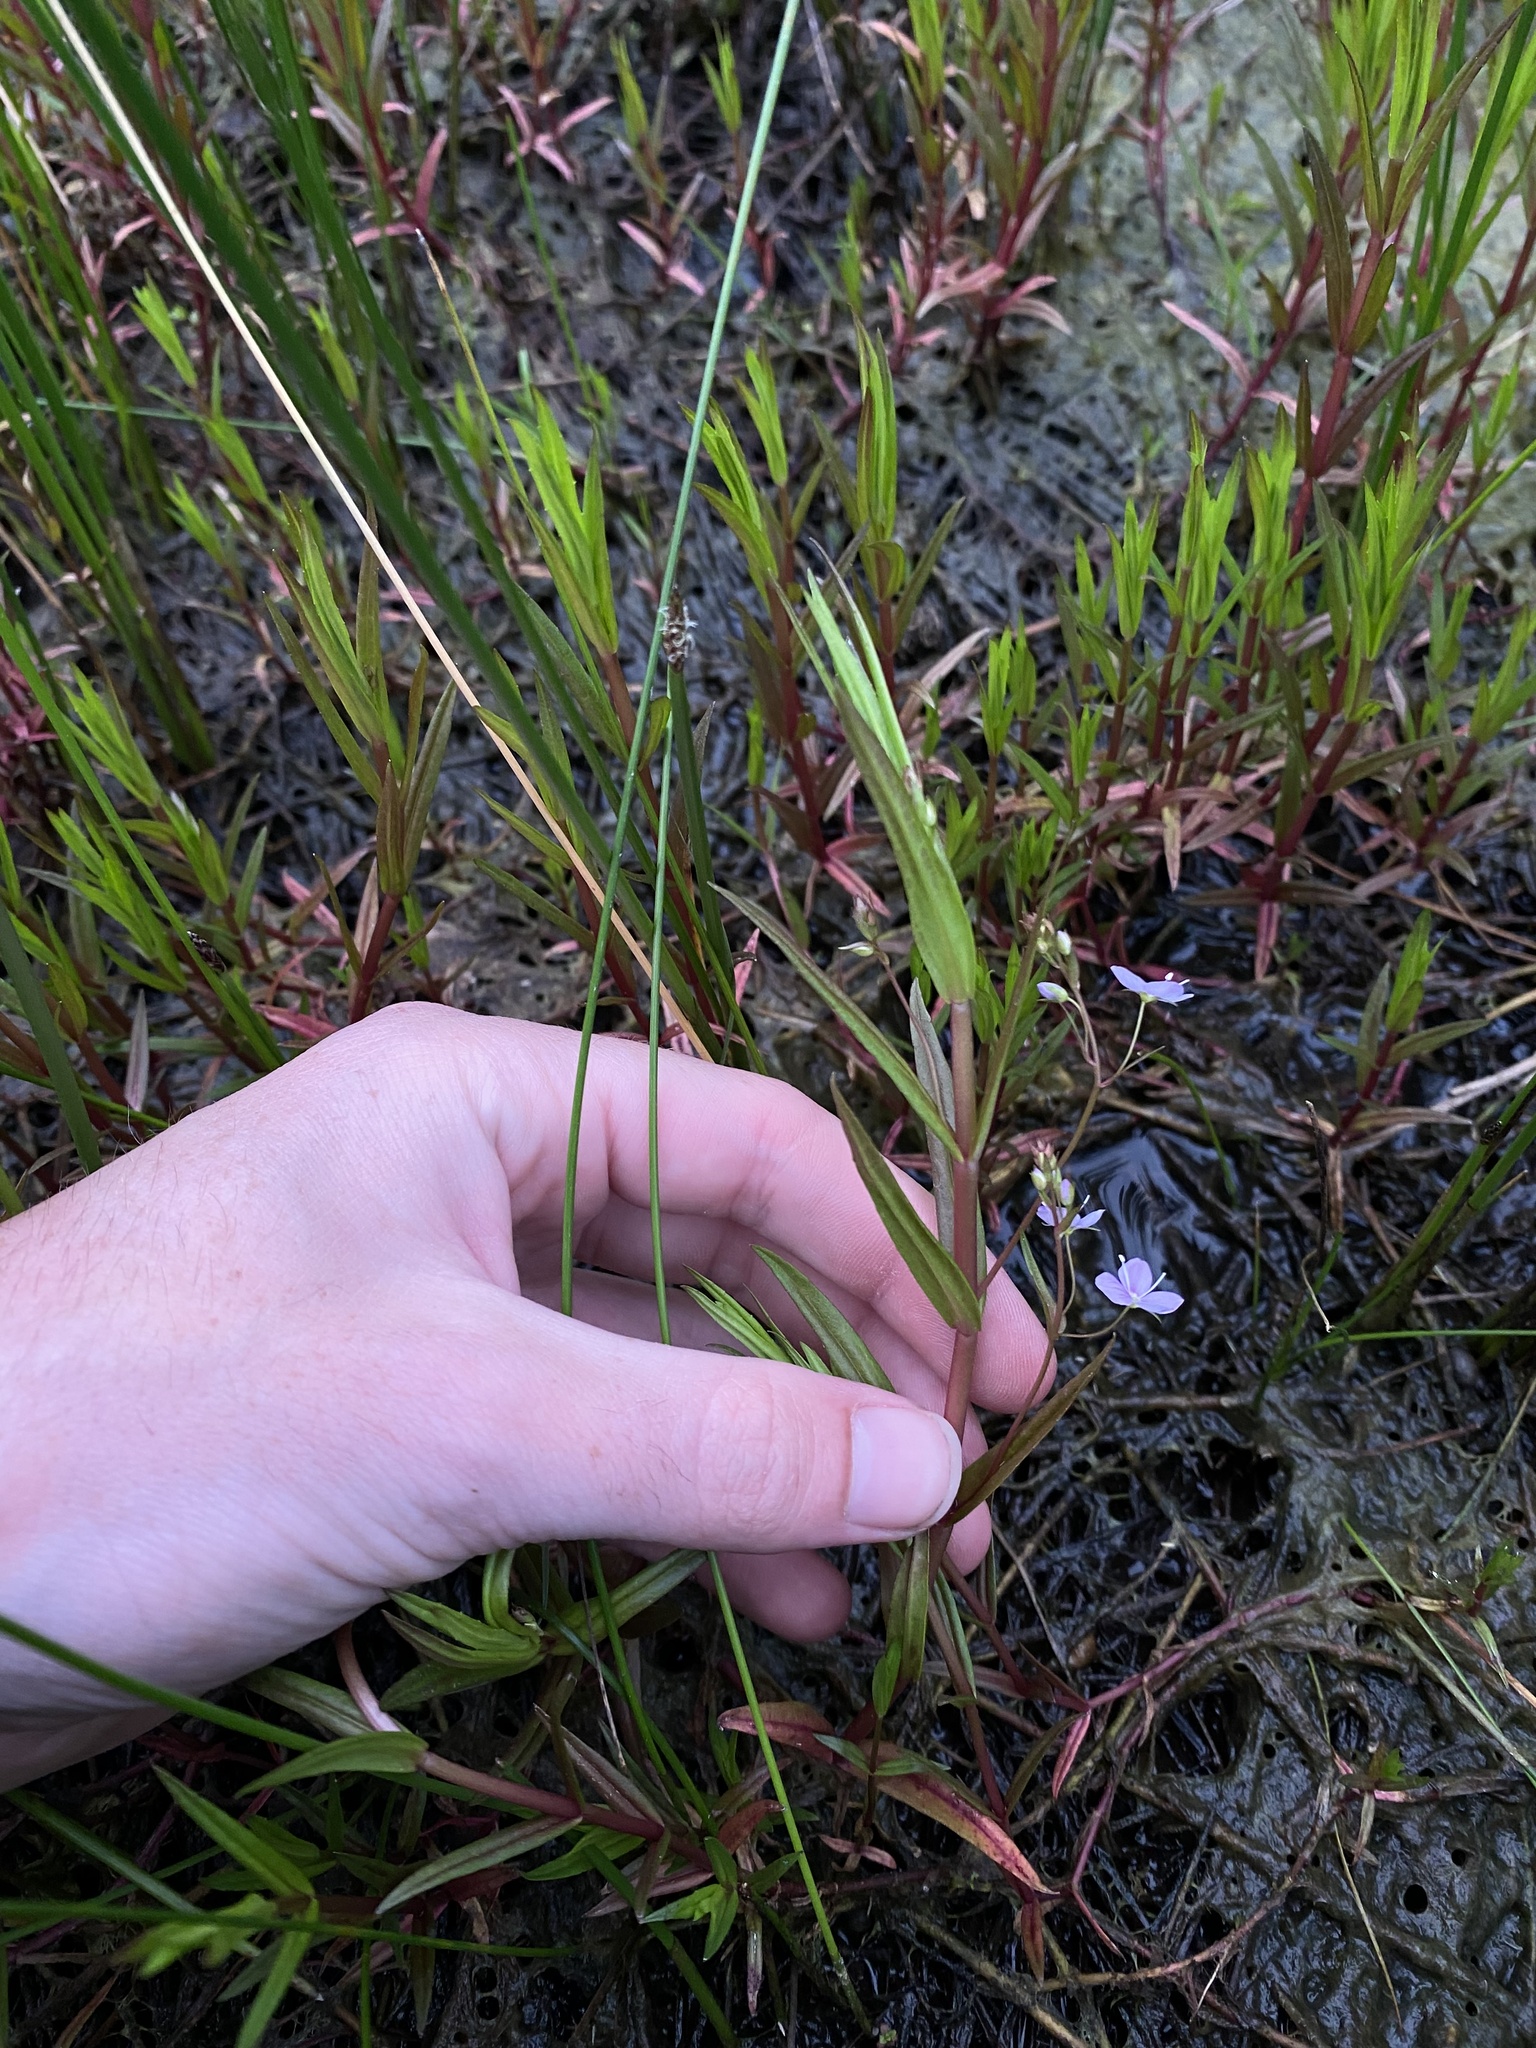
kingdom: Plantae
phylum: Tracheophyta
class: Magnoliopsida
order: Lamiales
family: Plantaginaceae
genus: Veronica
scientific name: Veronica scutellata
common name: Marsh speedwell
